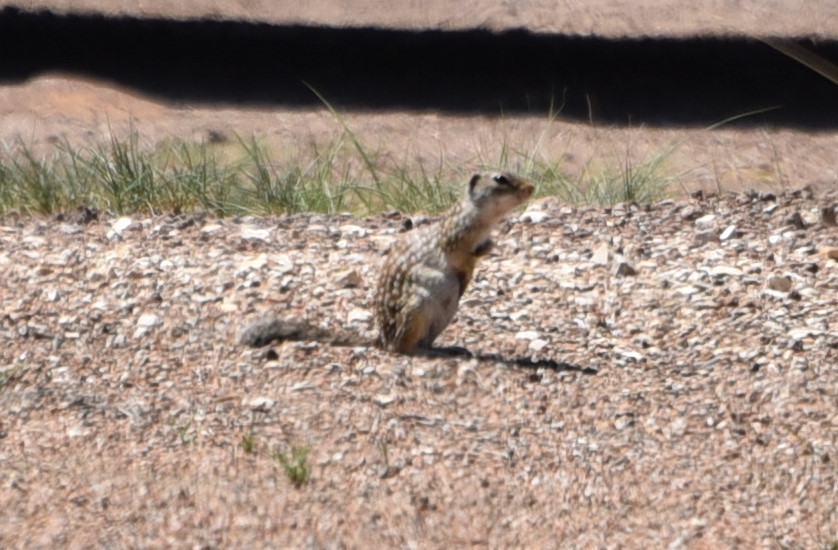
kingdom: Animalia
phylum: Chordata
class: Mammalia
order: Rodentia
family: Sciuridae
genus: Ictidomys
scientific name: Ictidomys parvidens
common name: Rio grande ground squirrel
